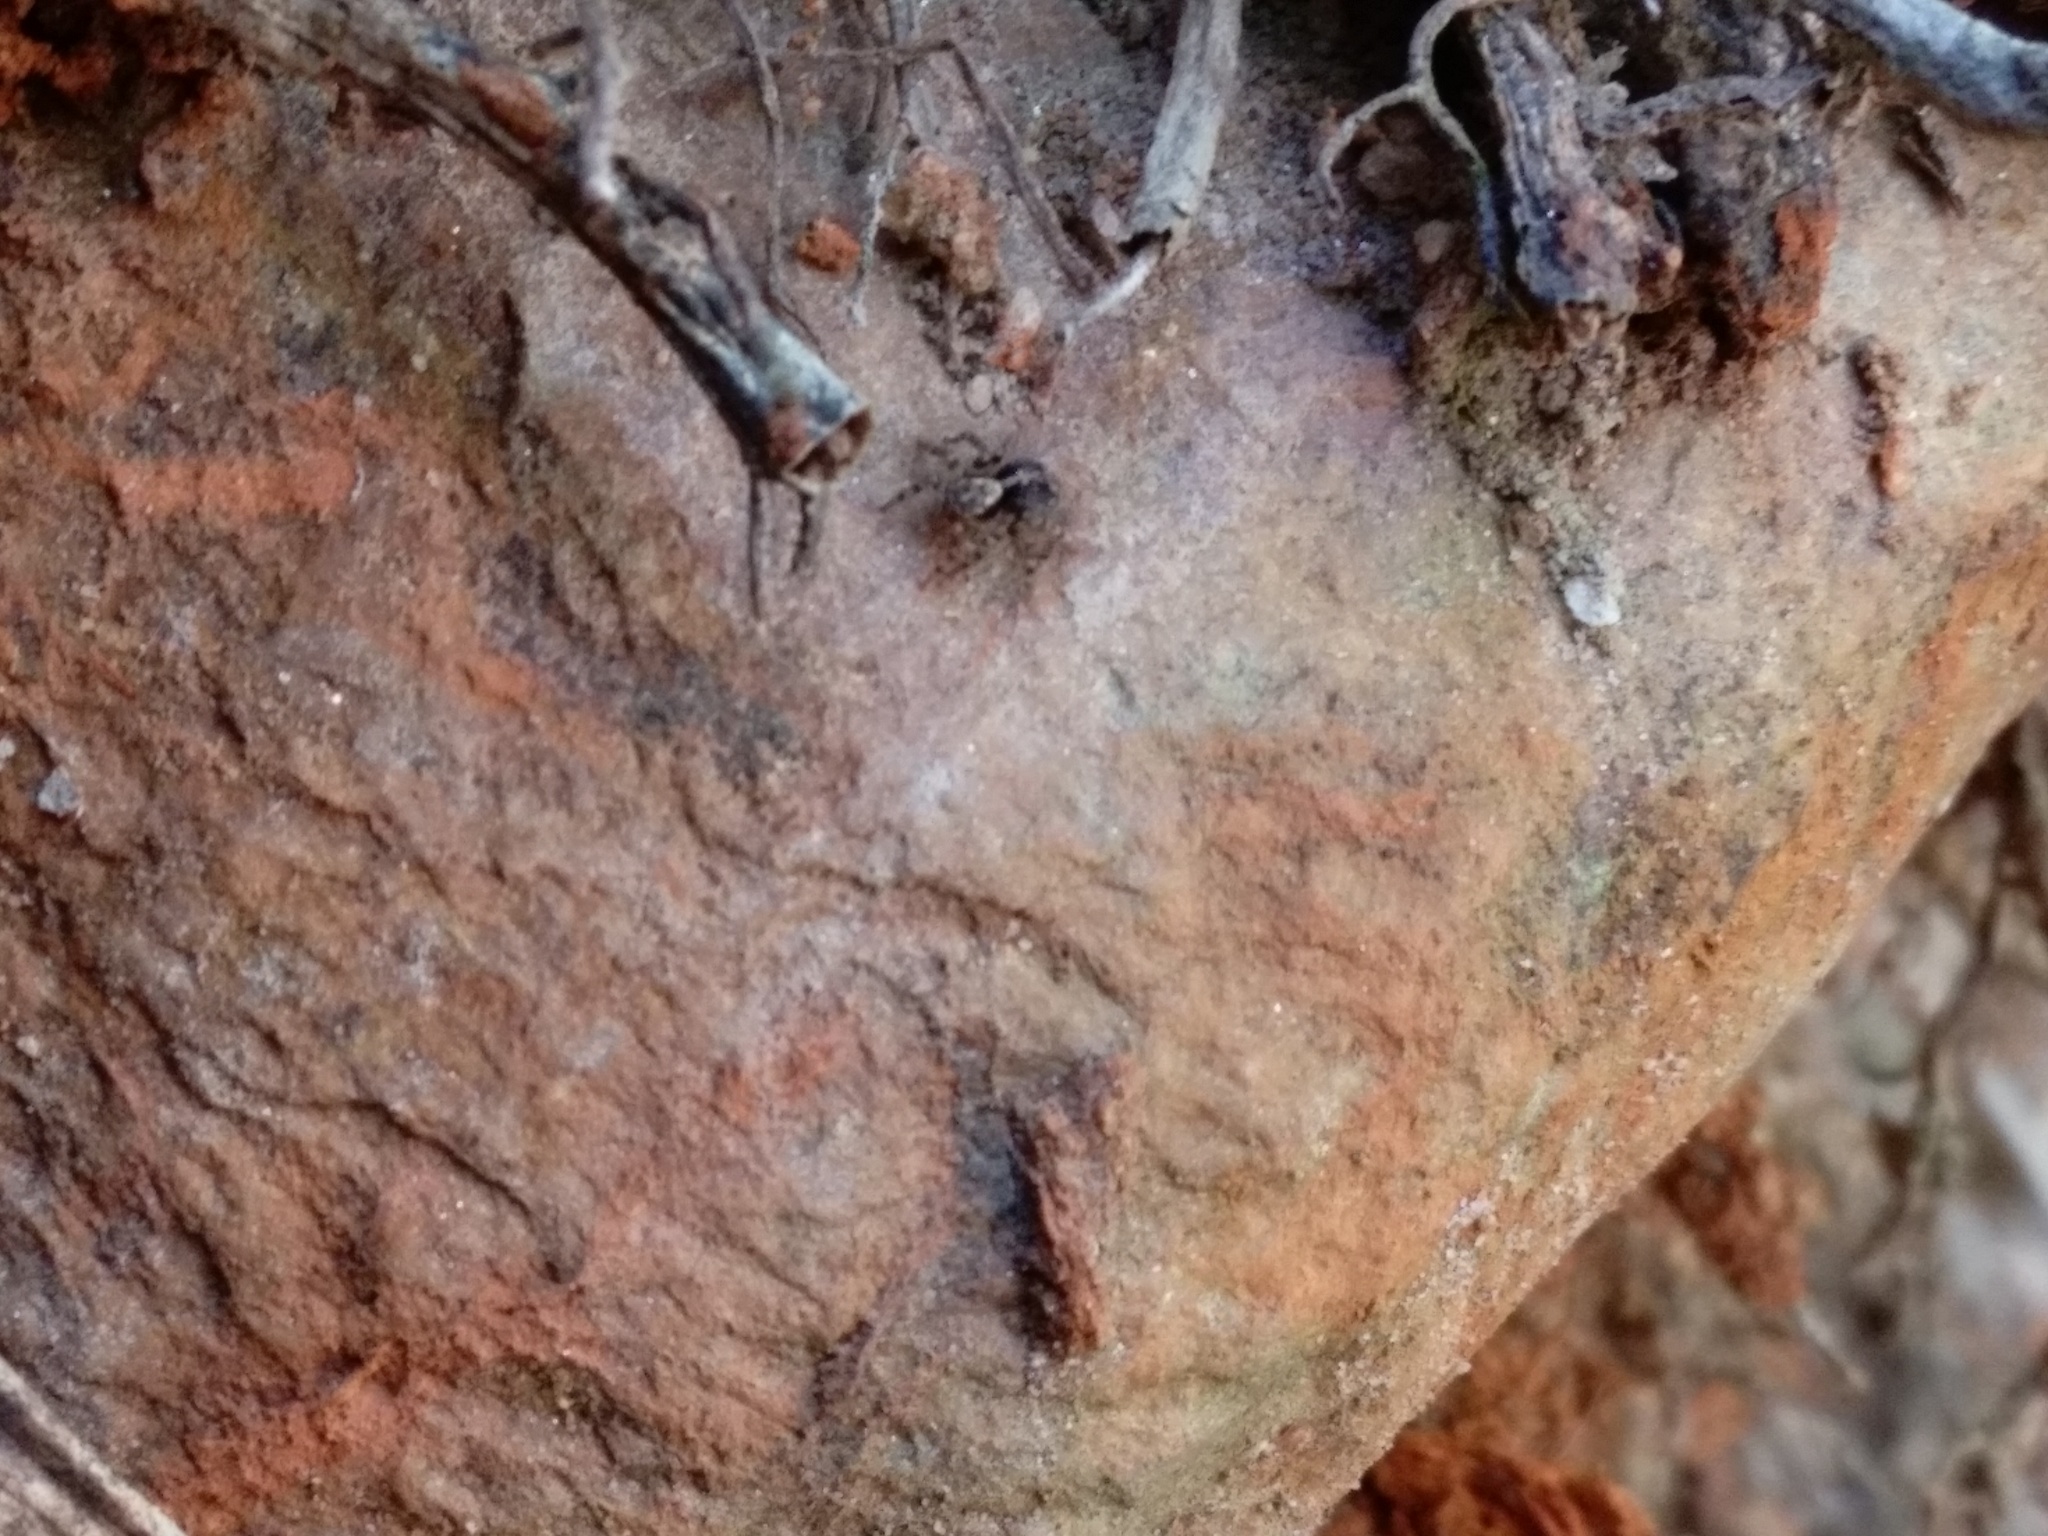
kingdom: Animalia
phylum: Arthropoda
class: Arachnida
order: Araneae
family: Salticidae
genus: Naphrys
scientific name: Naphrys pulex
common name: Flea jumping spider
